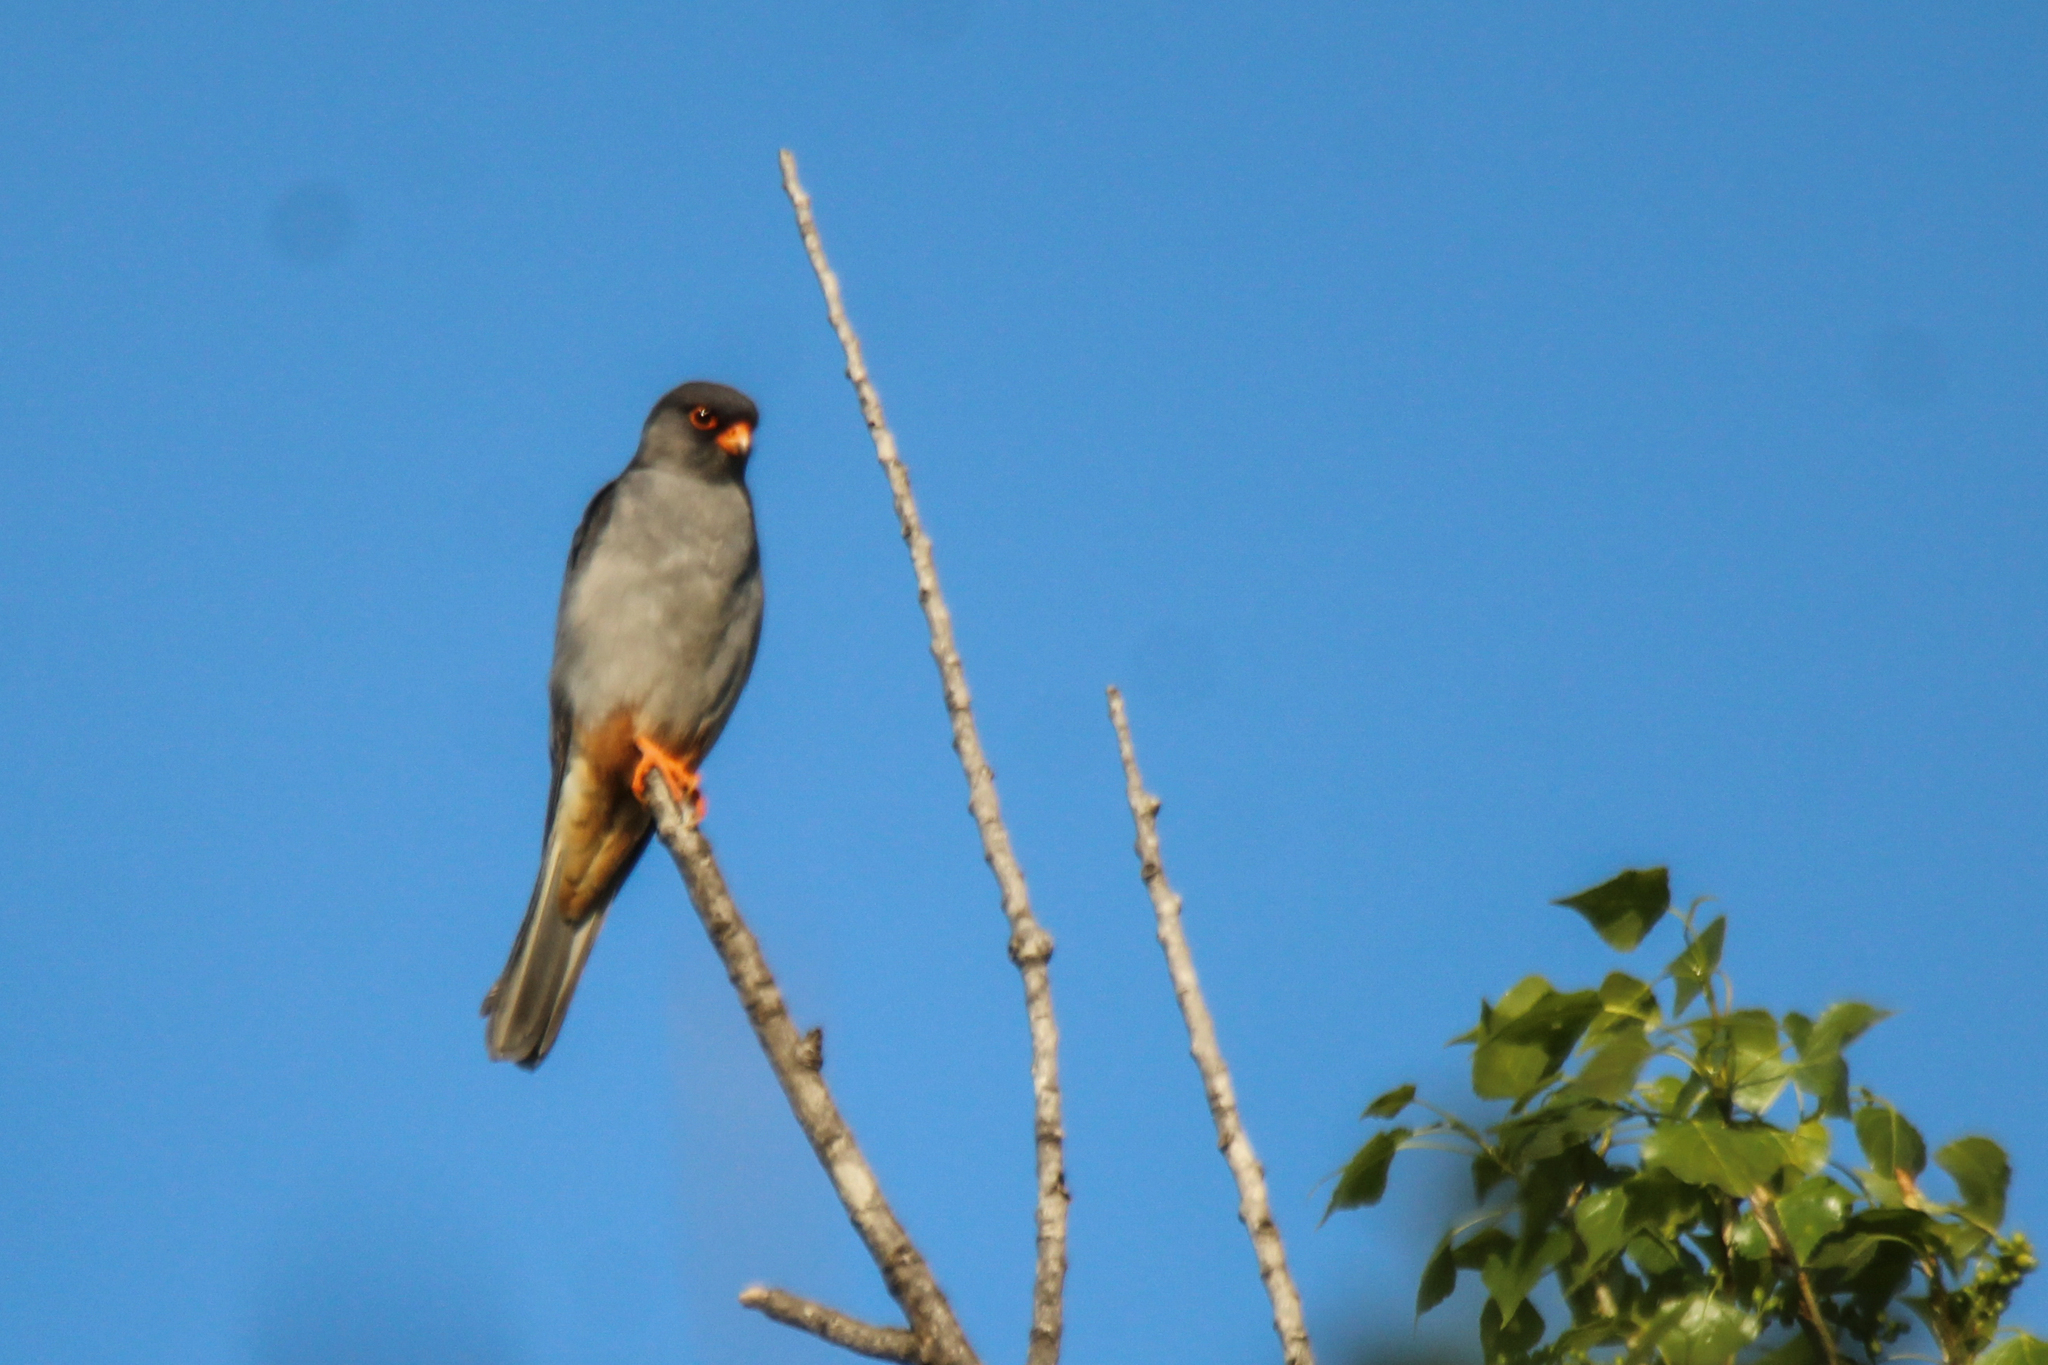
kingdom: Animalia
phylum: Chordata
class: Aves
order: Falconiformes
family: Falconidae
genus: Falco
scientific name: Falco amurensis
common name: Amur falcon
